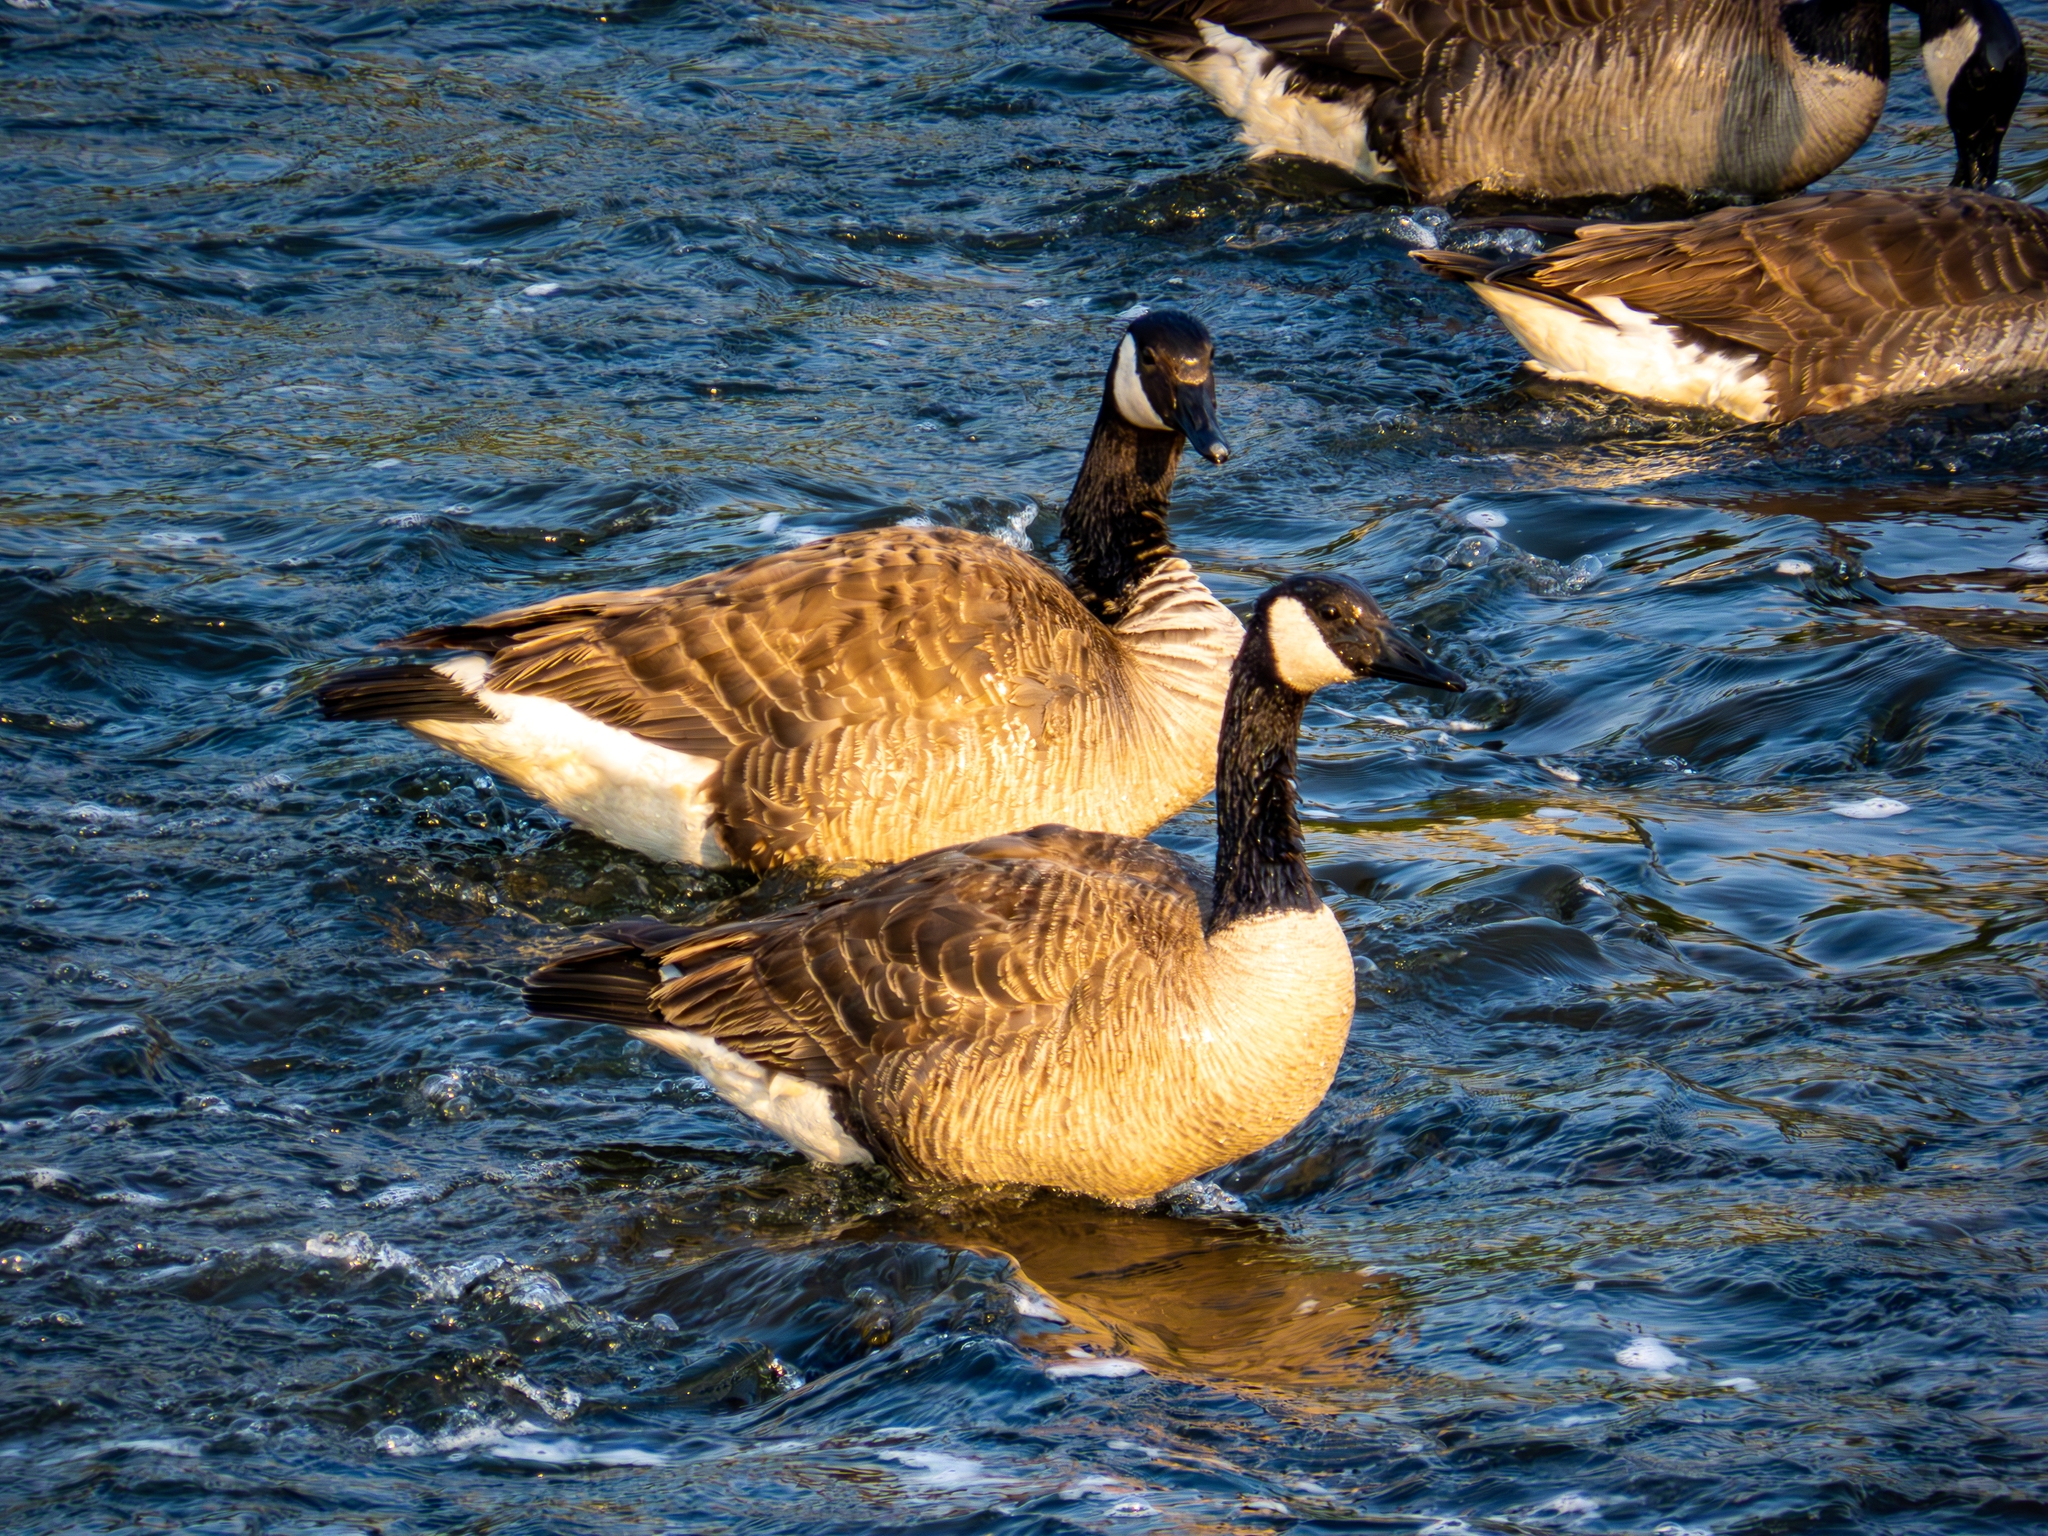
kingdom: Animalia
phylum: Chordata
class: Aves
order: Anseriformes
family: Anatidae
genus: Branta
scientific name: Branta canadensis
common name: Canada goose
